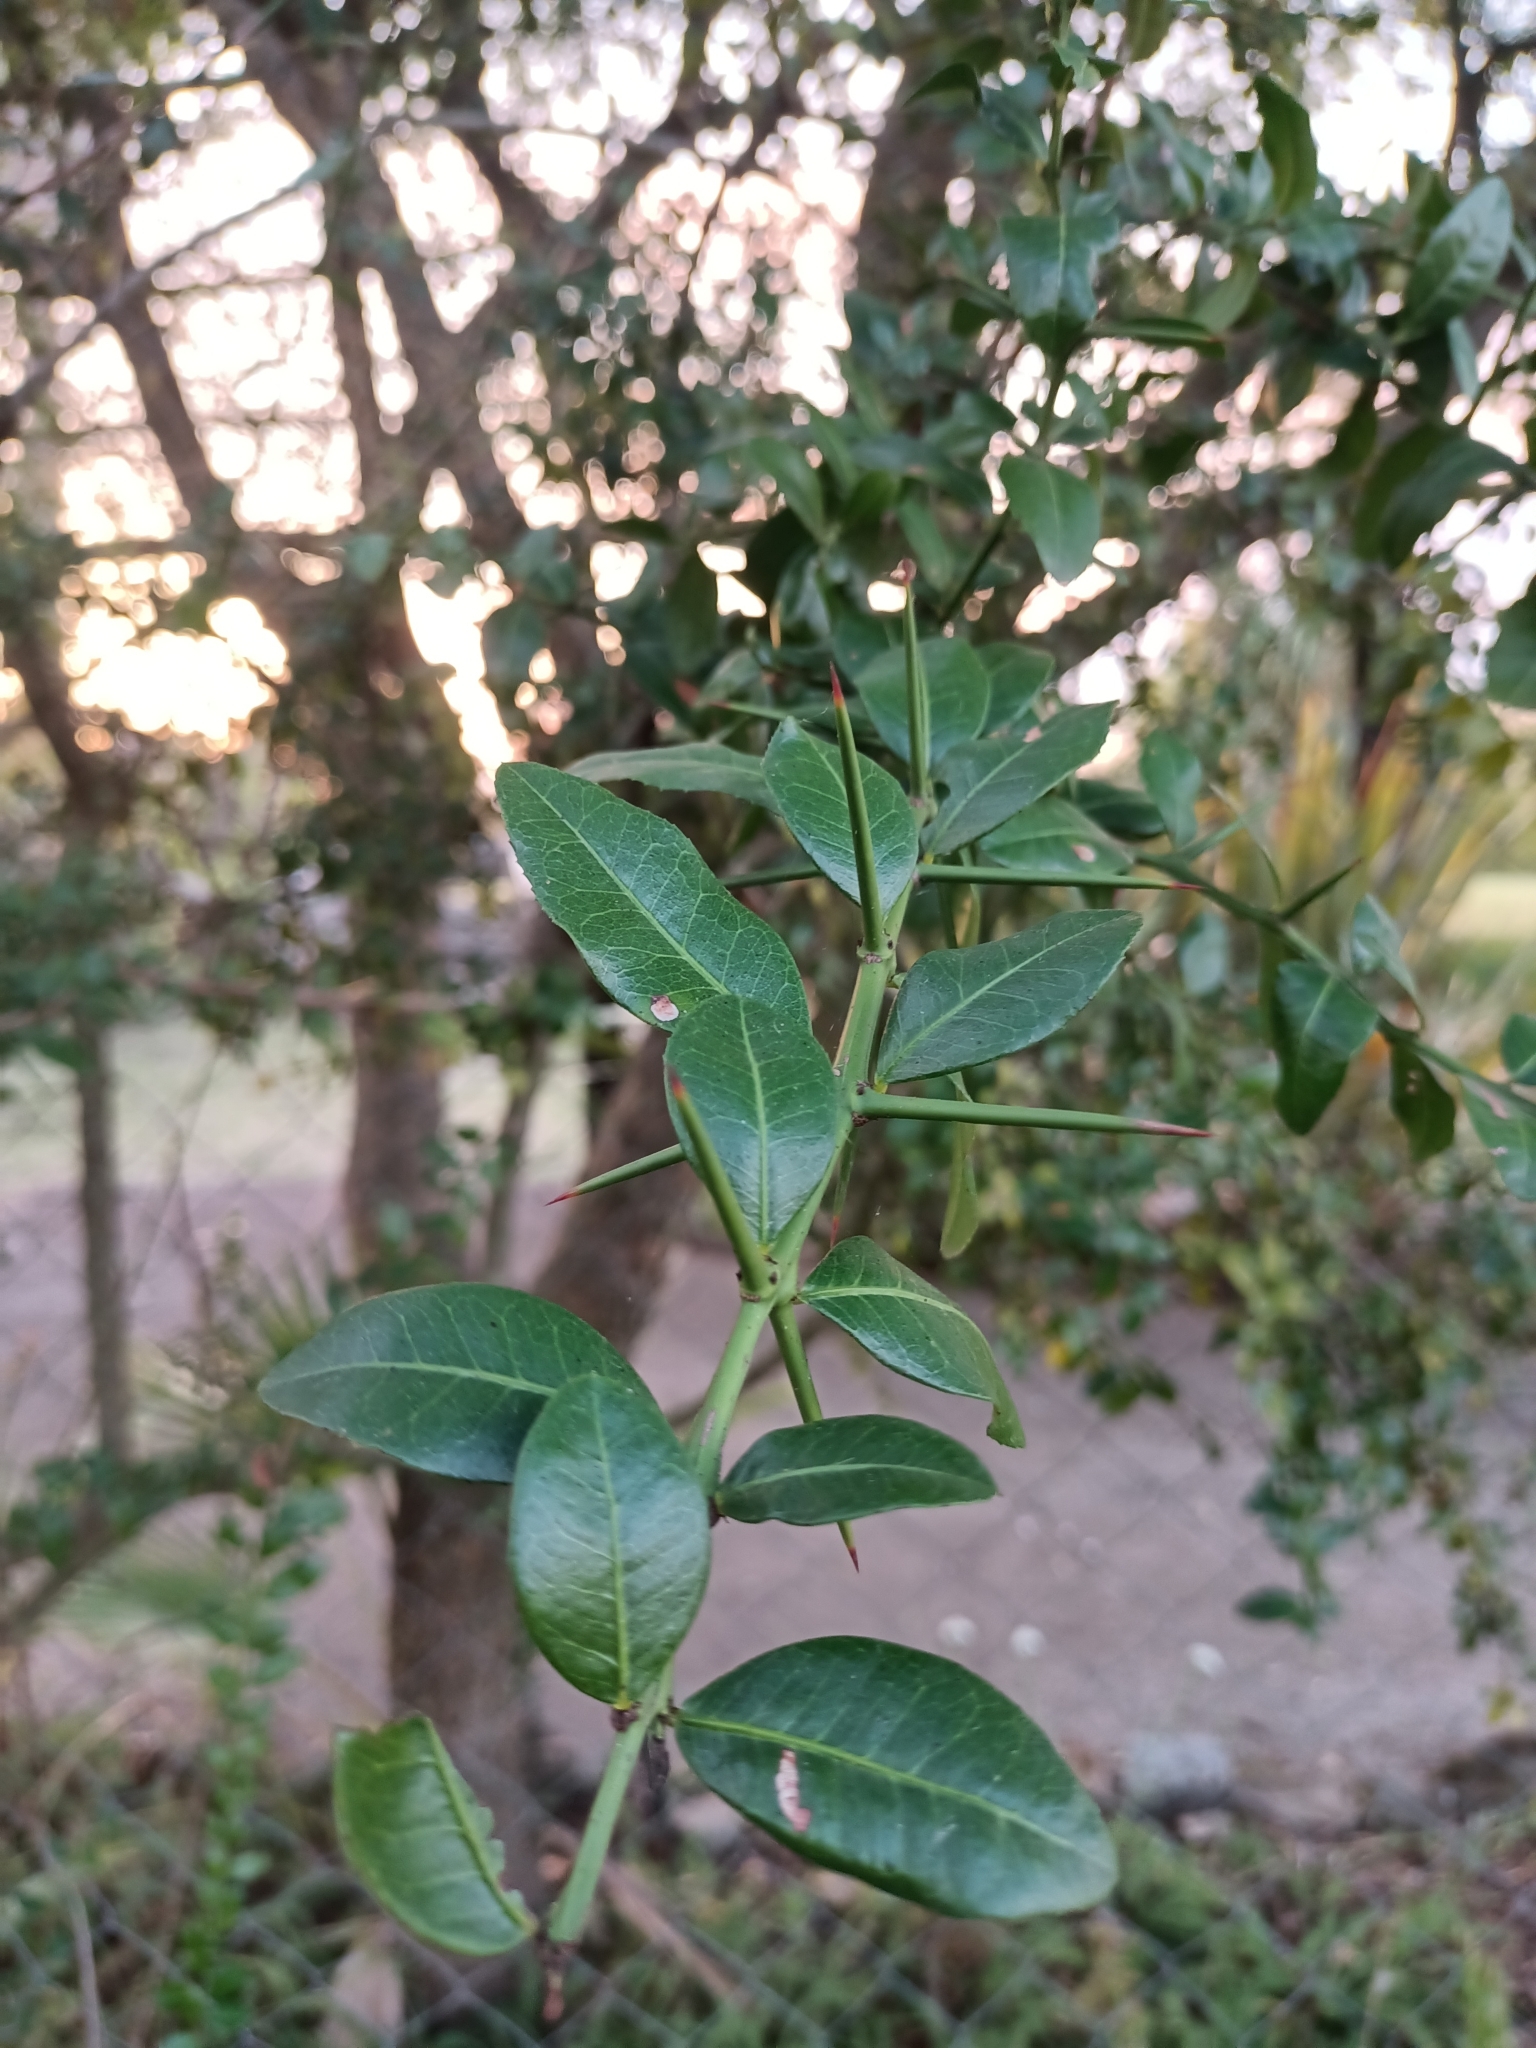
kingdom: Plantae
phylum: Tracheophyta
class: Magnoliopsida
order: Rosales
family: Rhamnaceae
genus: Scutia
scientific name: Scutia buxifolia
